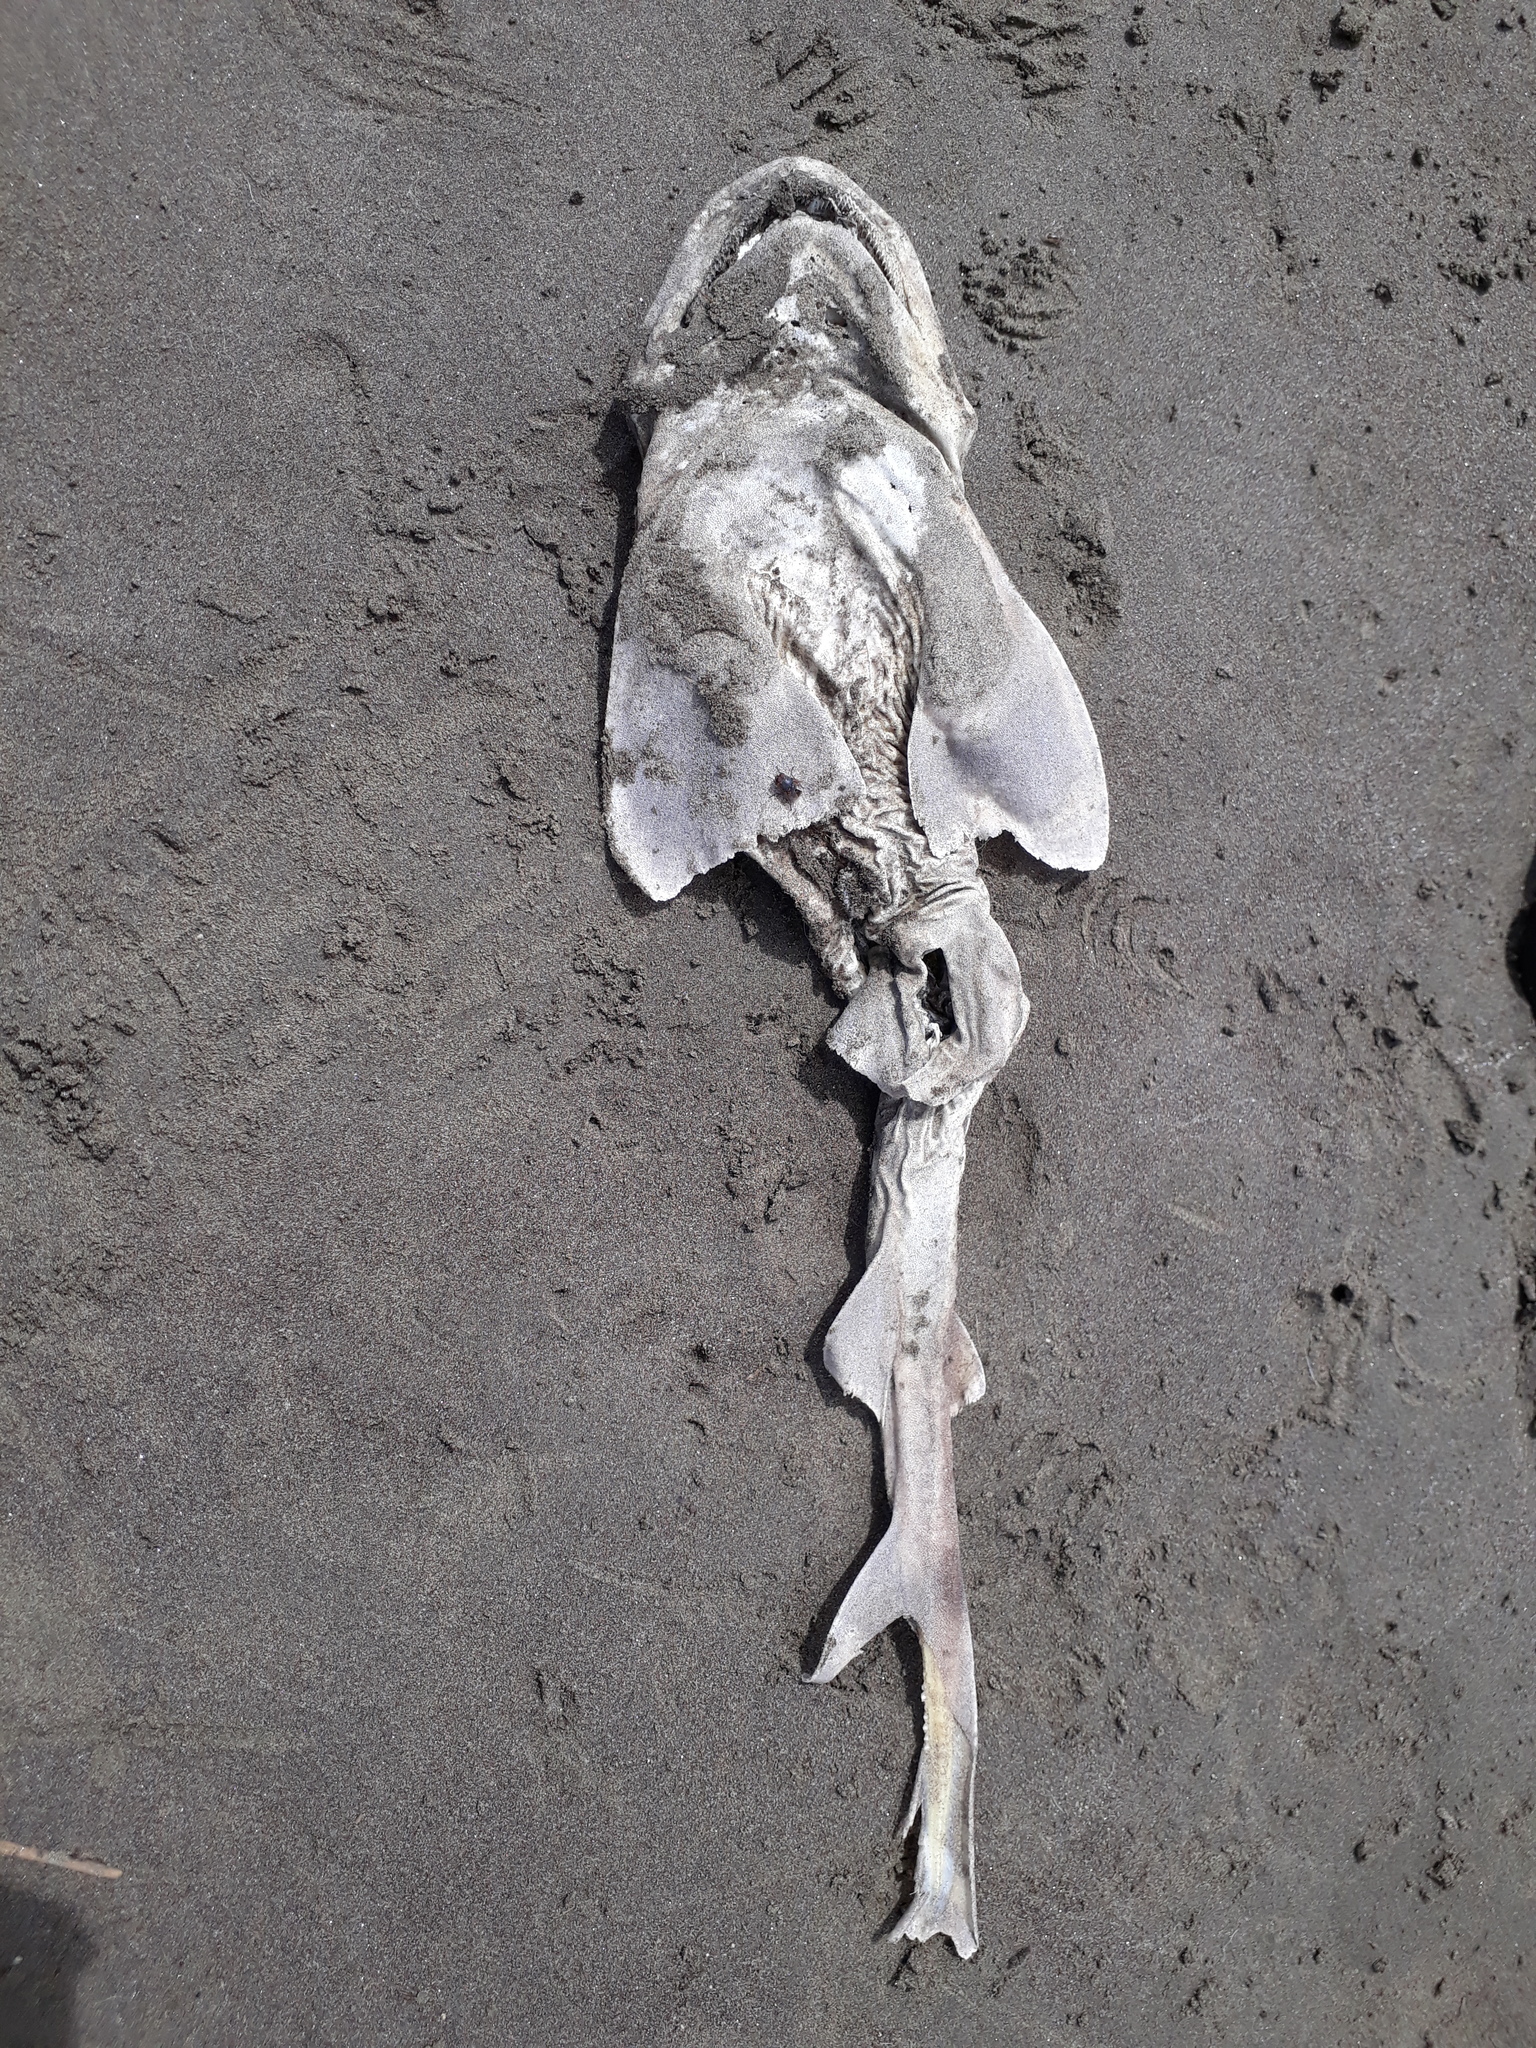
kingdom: Animalia
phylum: Chordata
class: Elasmobranchii
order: Carcharhiniformes
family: Scyliorhinidae
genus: Cephaloscyllium
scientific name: Cephaloscyllium isabellum
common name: Carpet shark
